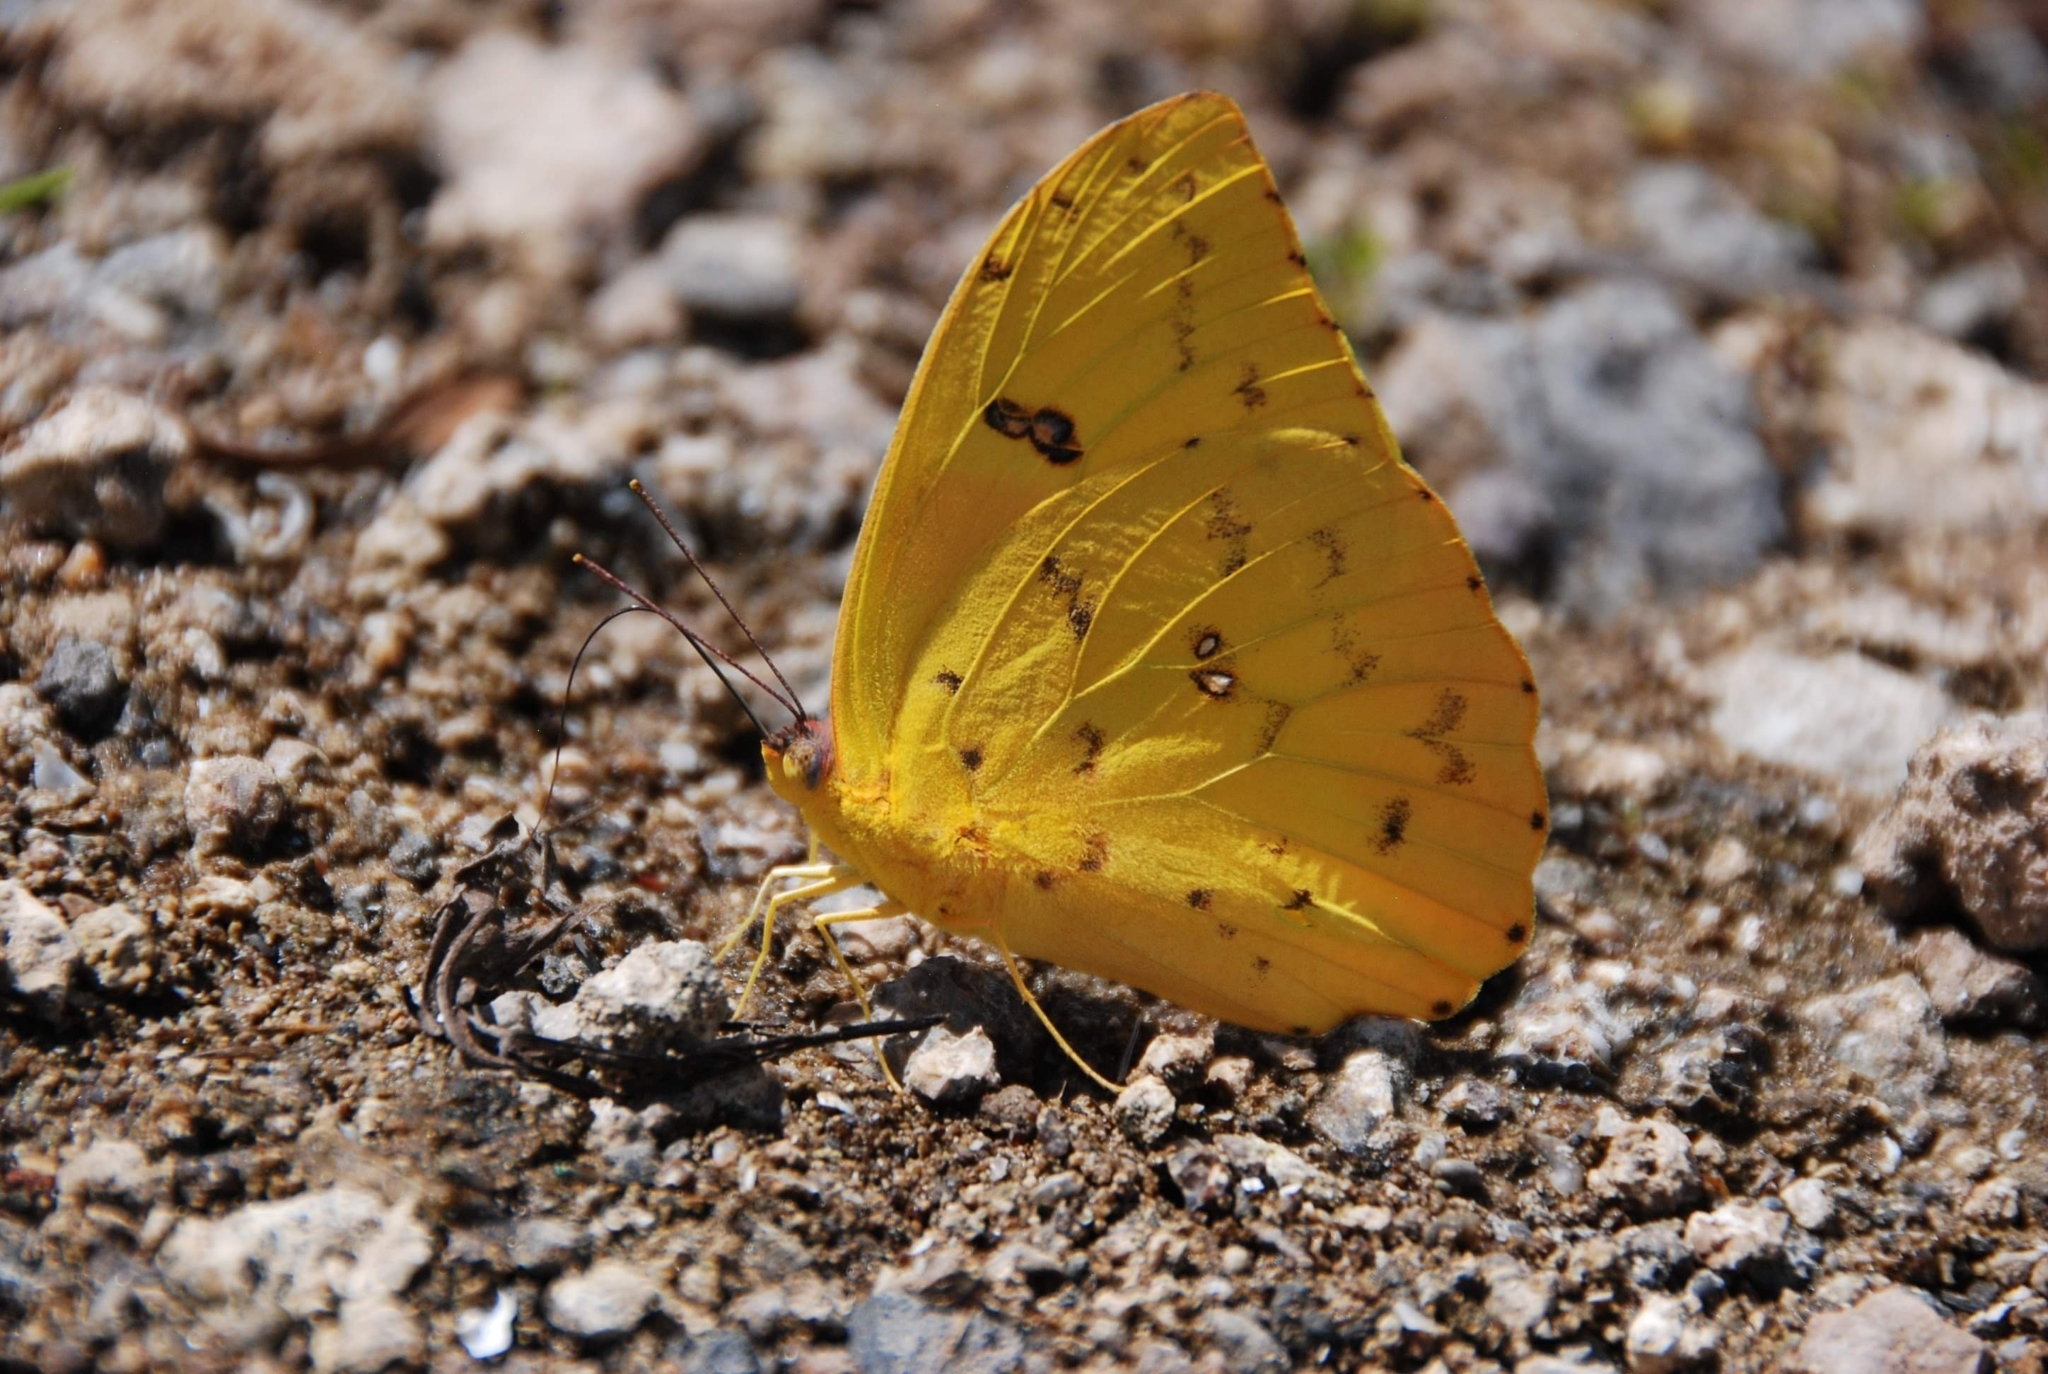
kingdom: Animalia
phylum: Arthropoda
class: Insecta
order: Lepidoptera
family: Pieridae
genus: Phoebis
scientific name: Phoebis philea
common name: Orange-barred giant sulphur
